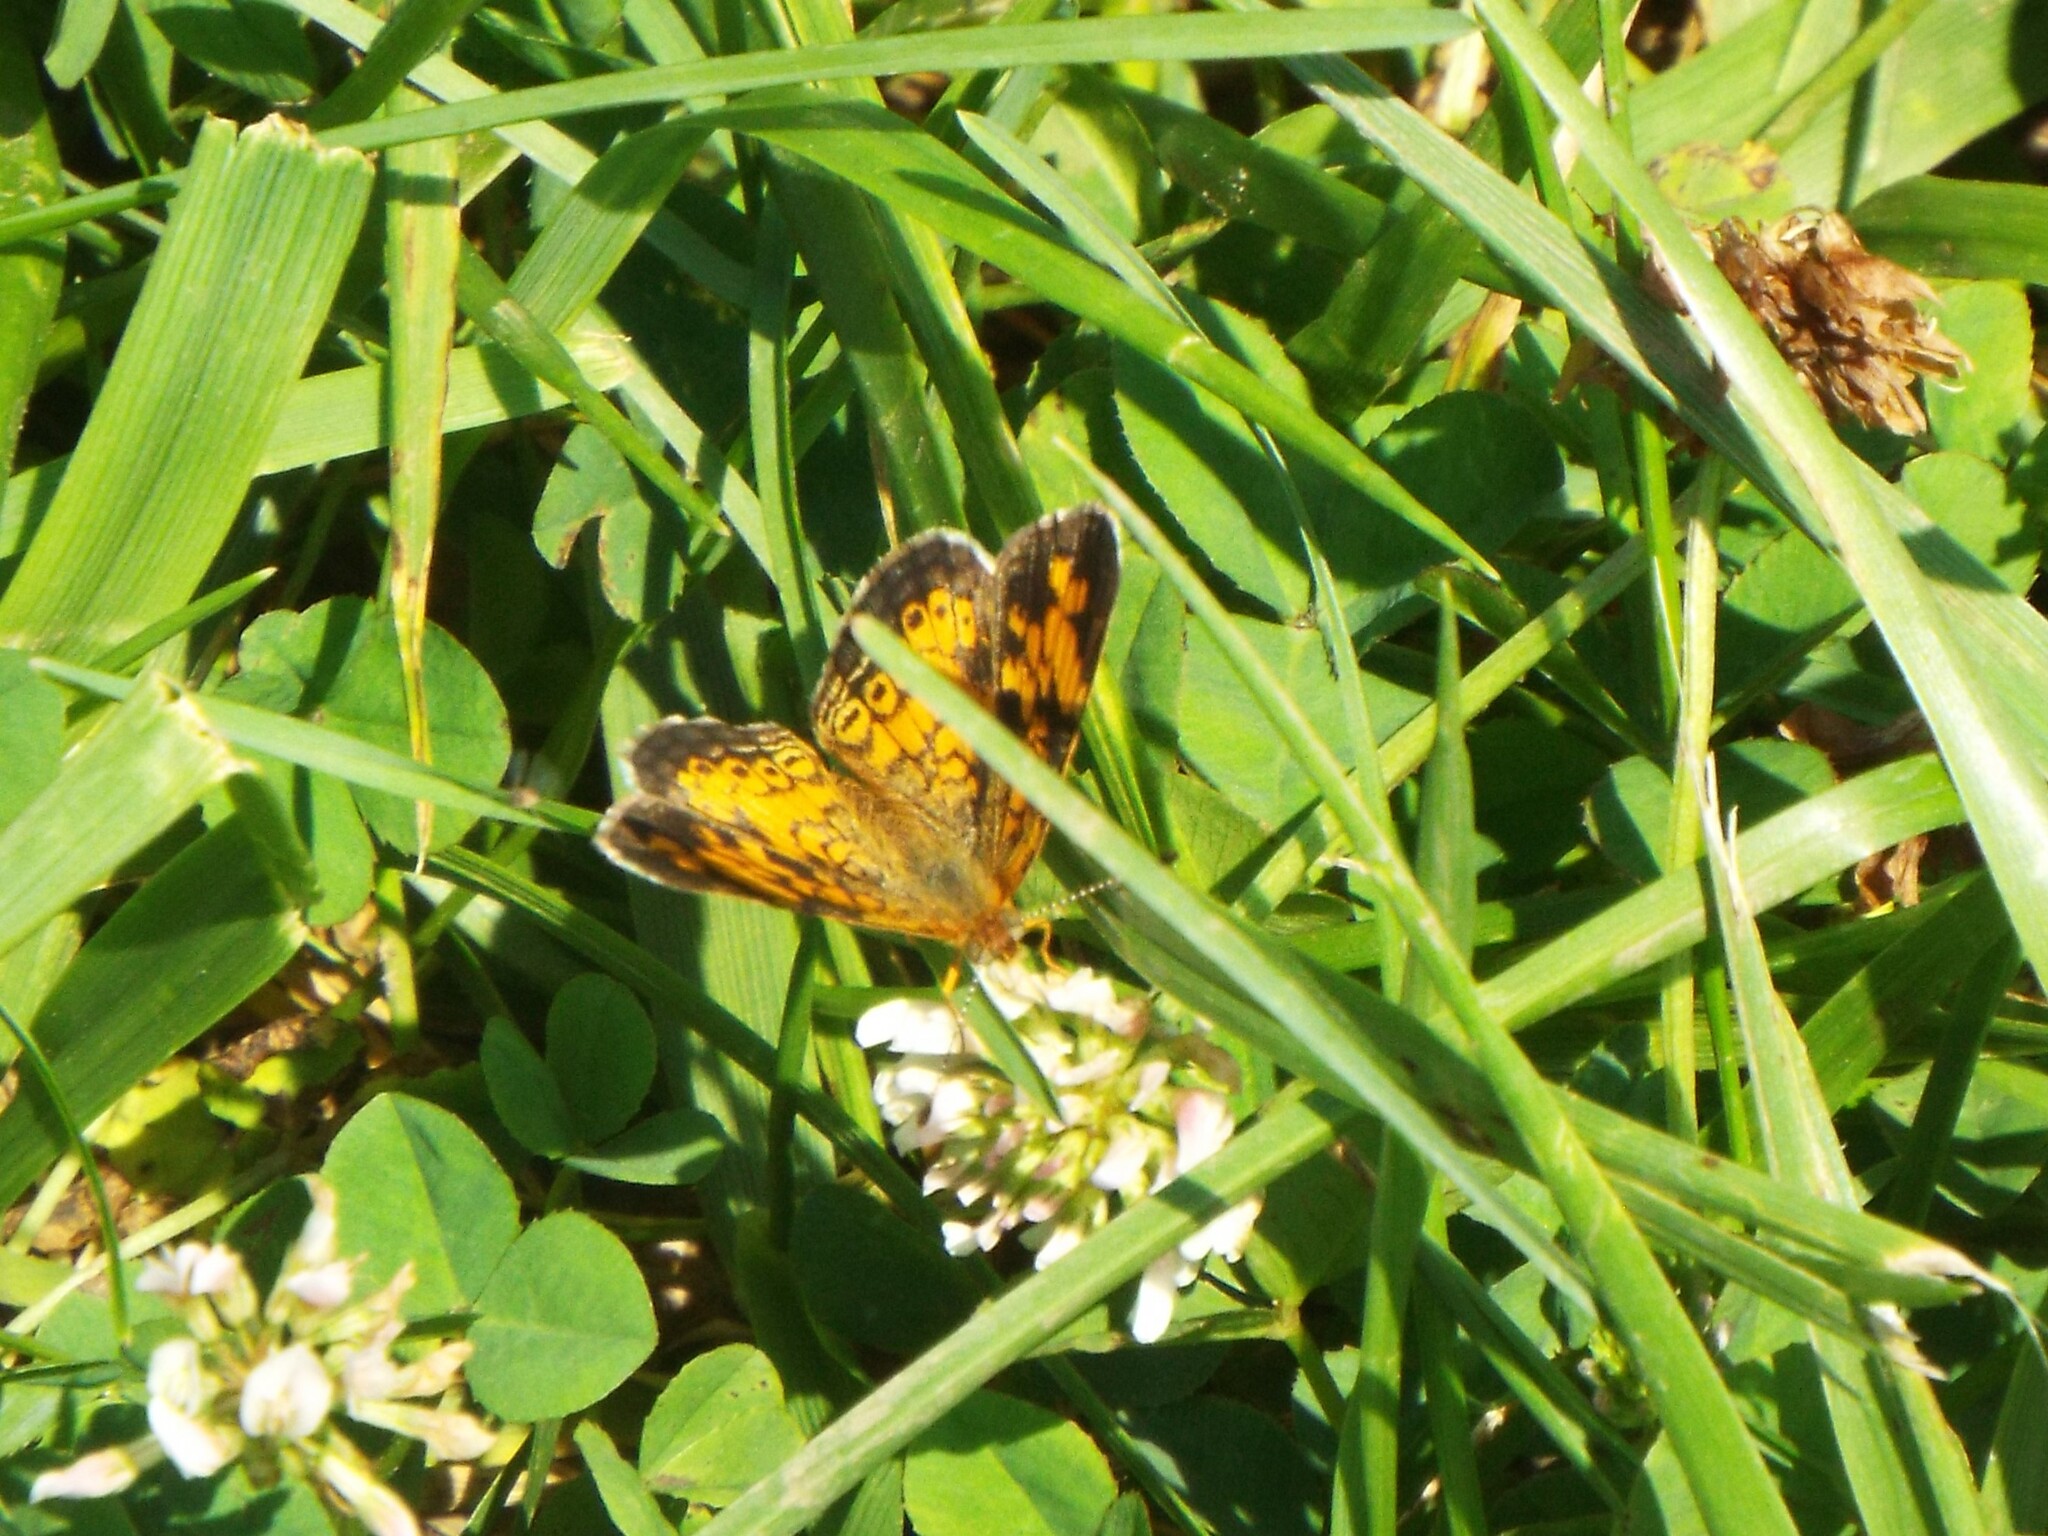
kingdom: Animalia
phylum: Arthropoda
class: Insecta
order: Lepidoptera
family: Nymphalidae
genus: Phyciodes
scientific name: Phyciodes tharos
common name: Pearl crescent
